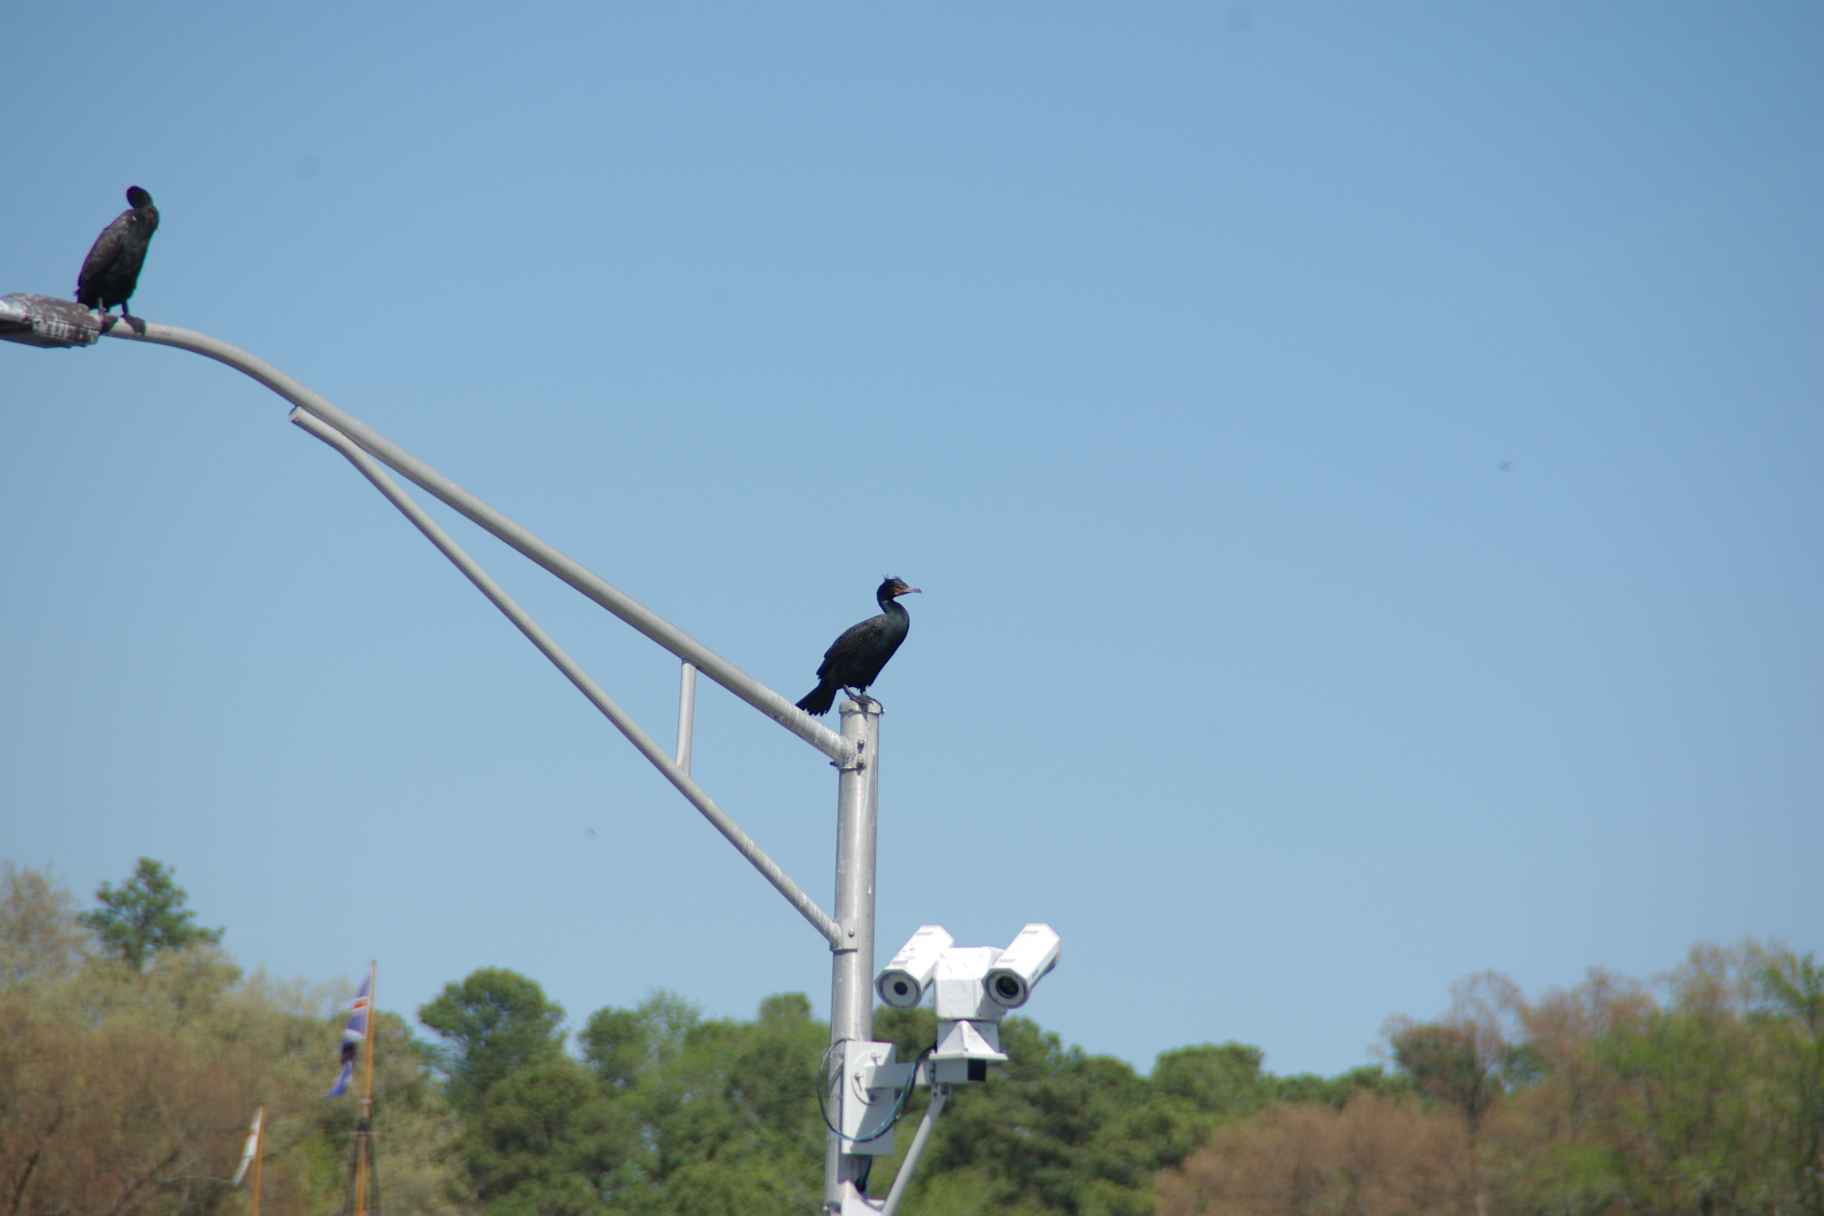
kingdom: Animalia
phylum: Chordata
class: Aves
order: Suliformes
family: Phalacrocoracidae
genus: Phalacrocorax
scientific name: Phalacrocorax auritus
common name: Double-crested cormorant
